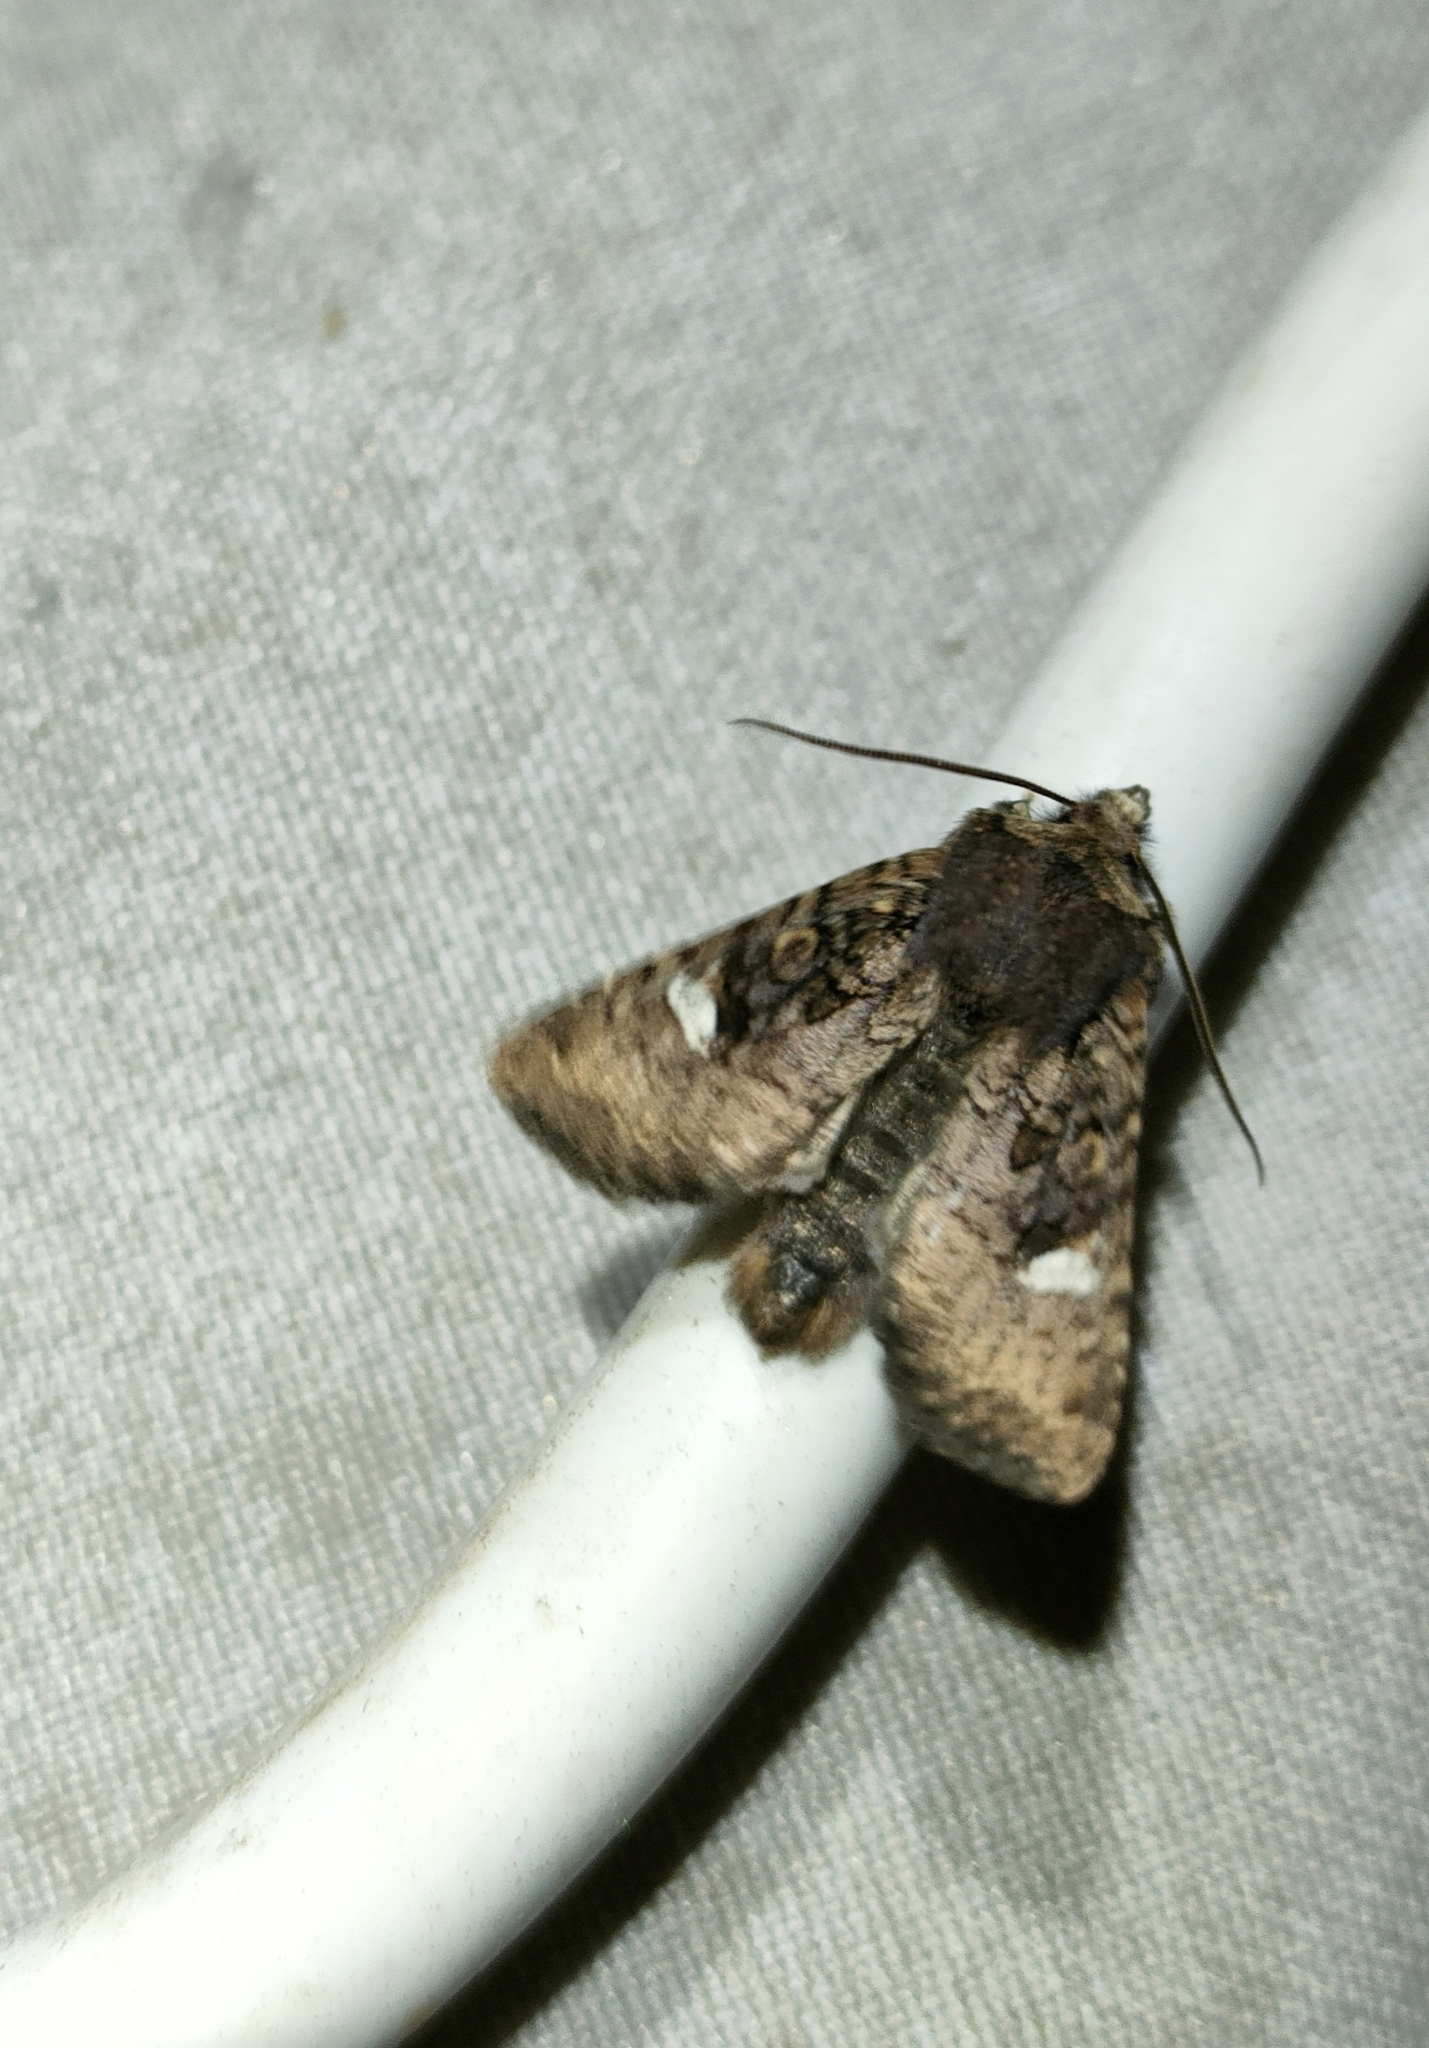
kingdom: Animalia
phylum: Arthropoda
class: Insecta
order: Lepidoptera
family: Noctuidae
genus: Dryobota
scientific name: Dryobota labecula
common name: Oak rustic
